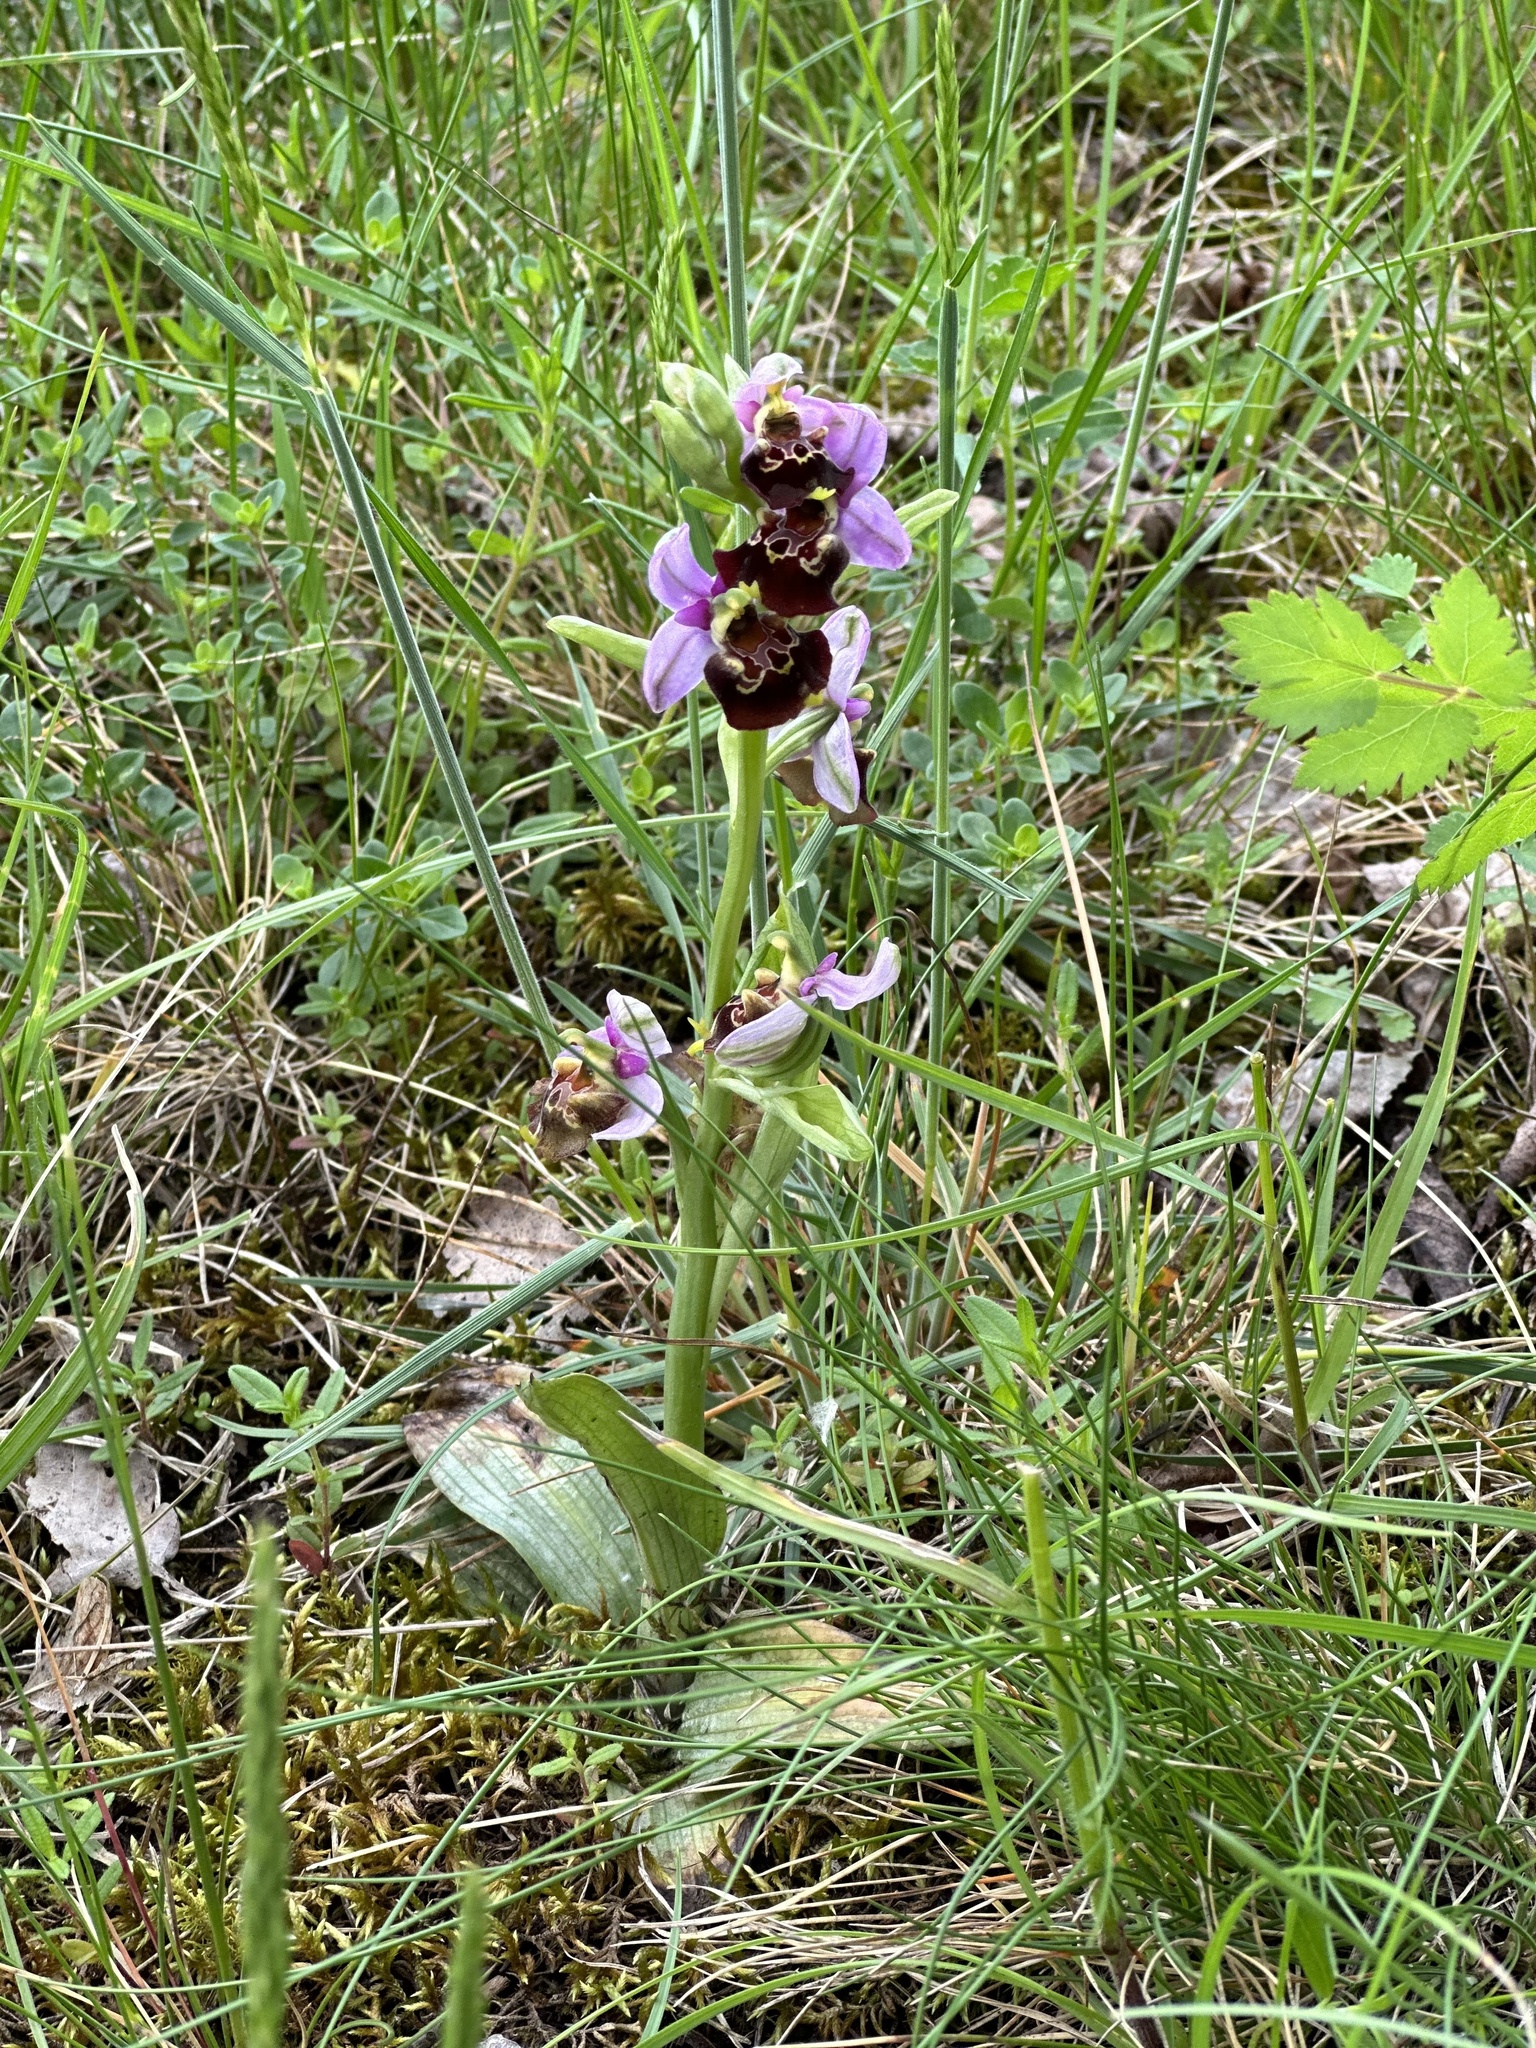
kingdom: Plantae
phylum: Tracheophyta
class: Liliopsida
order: Asparagales
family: Orchidaceae
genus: Ophrys
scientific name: Ophrys holosericea
